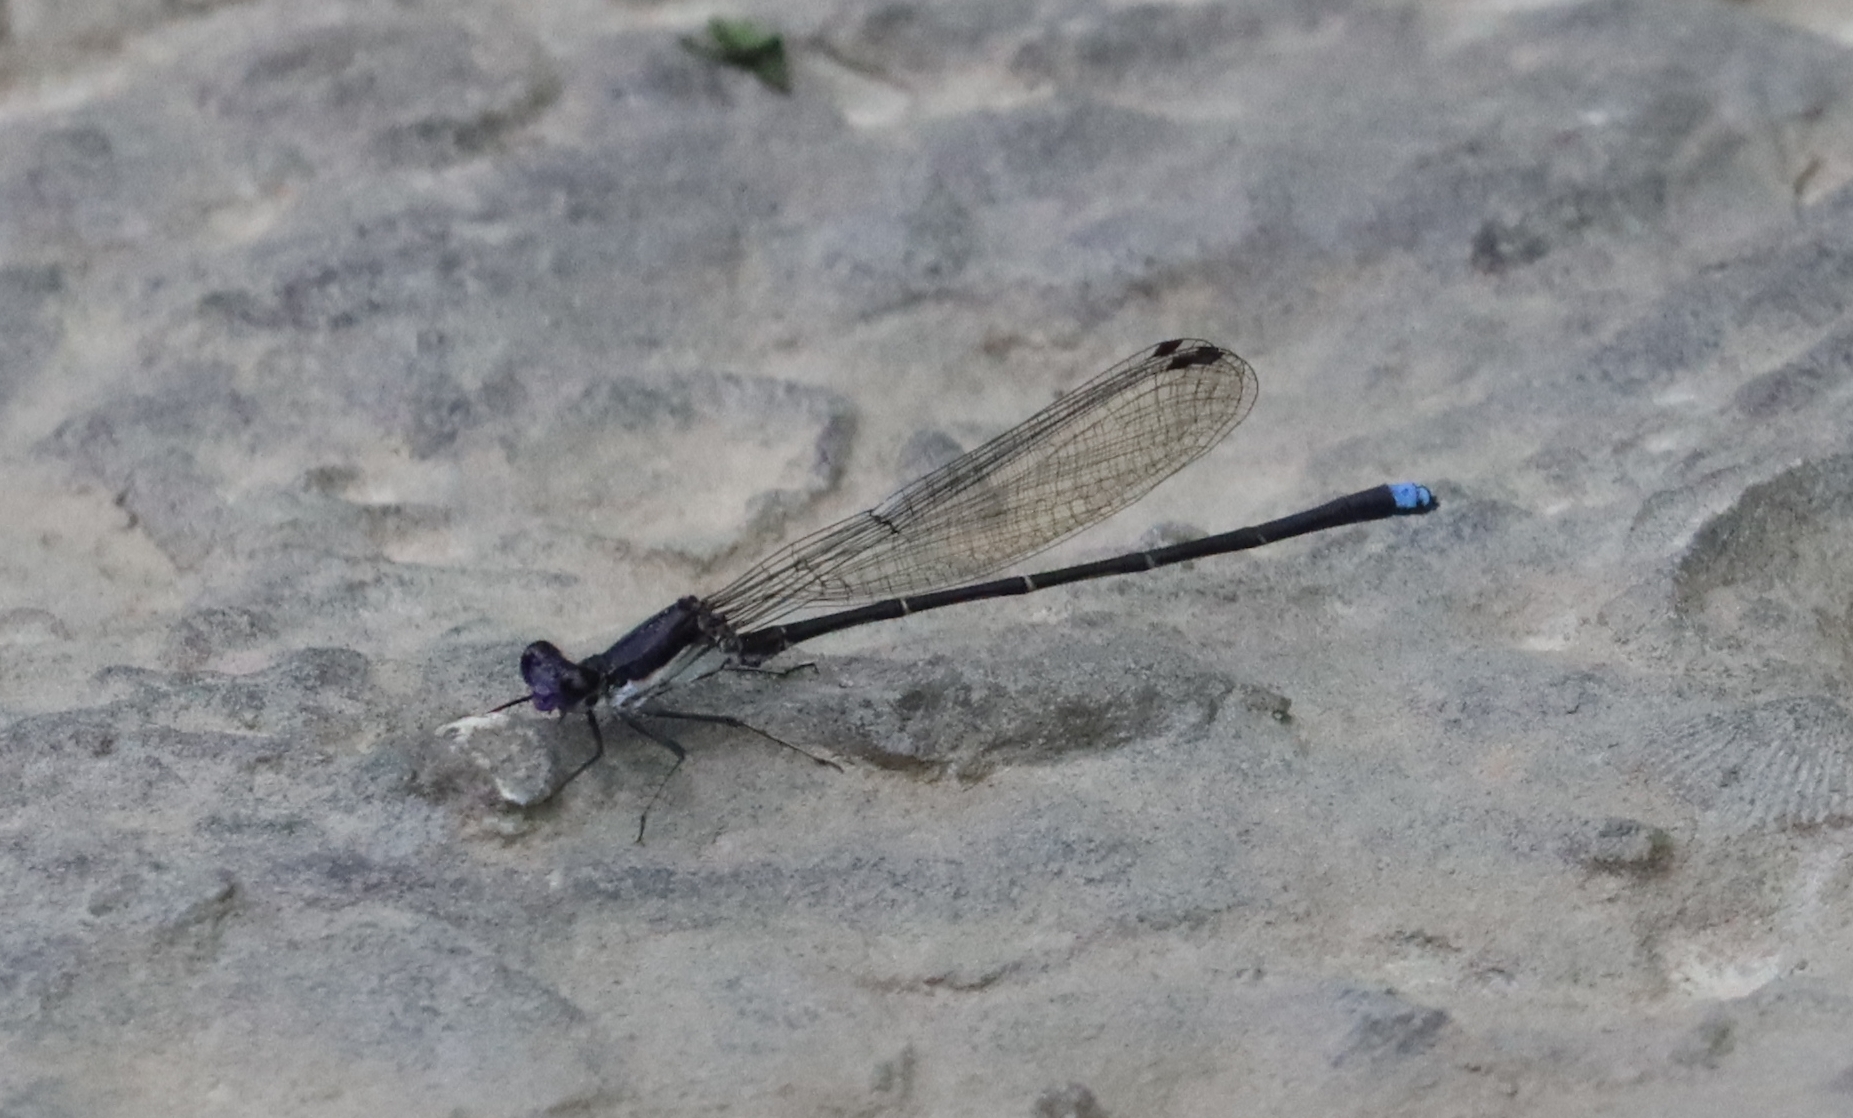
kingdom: Animalia
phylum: Arthropoda
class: Insecta
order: Odonata
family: Coenagrionidae
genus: Argia
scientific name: Argia tibialis
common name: Blue-tipped dancer
